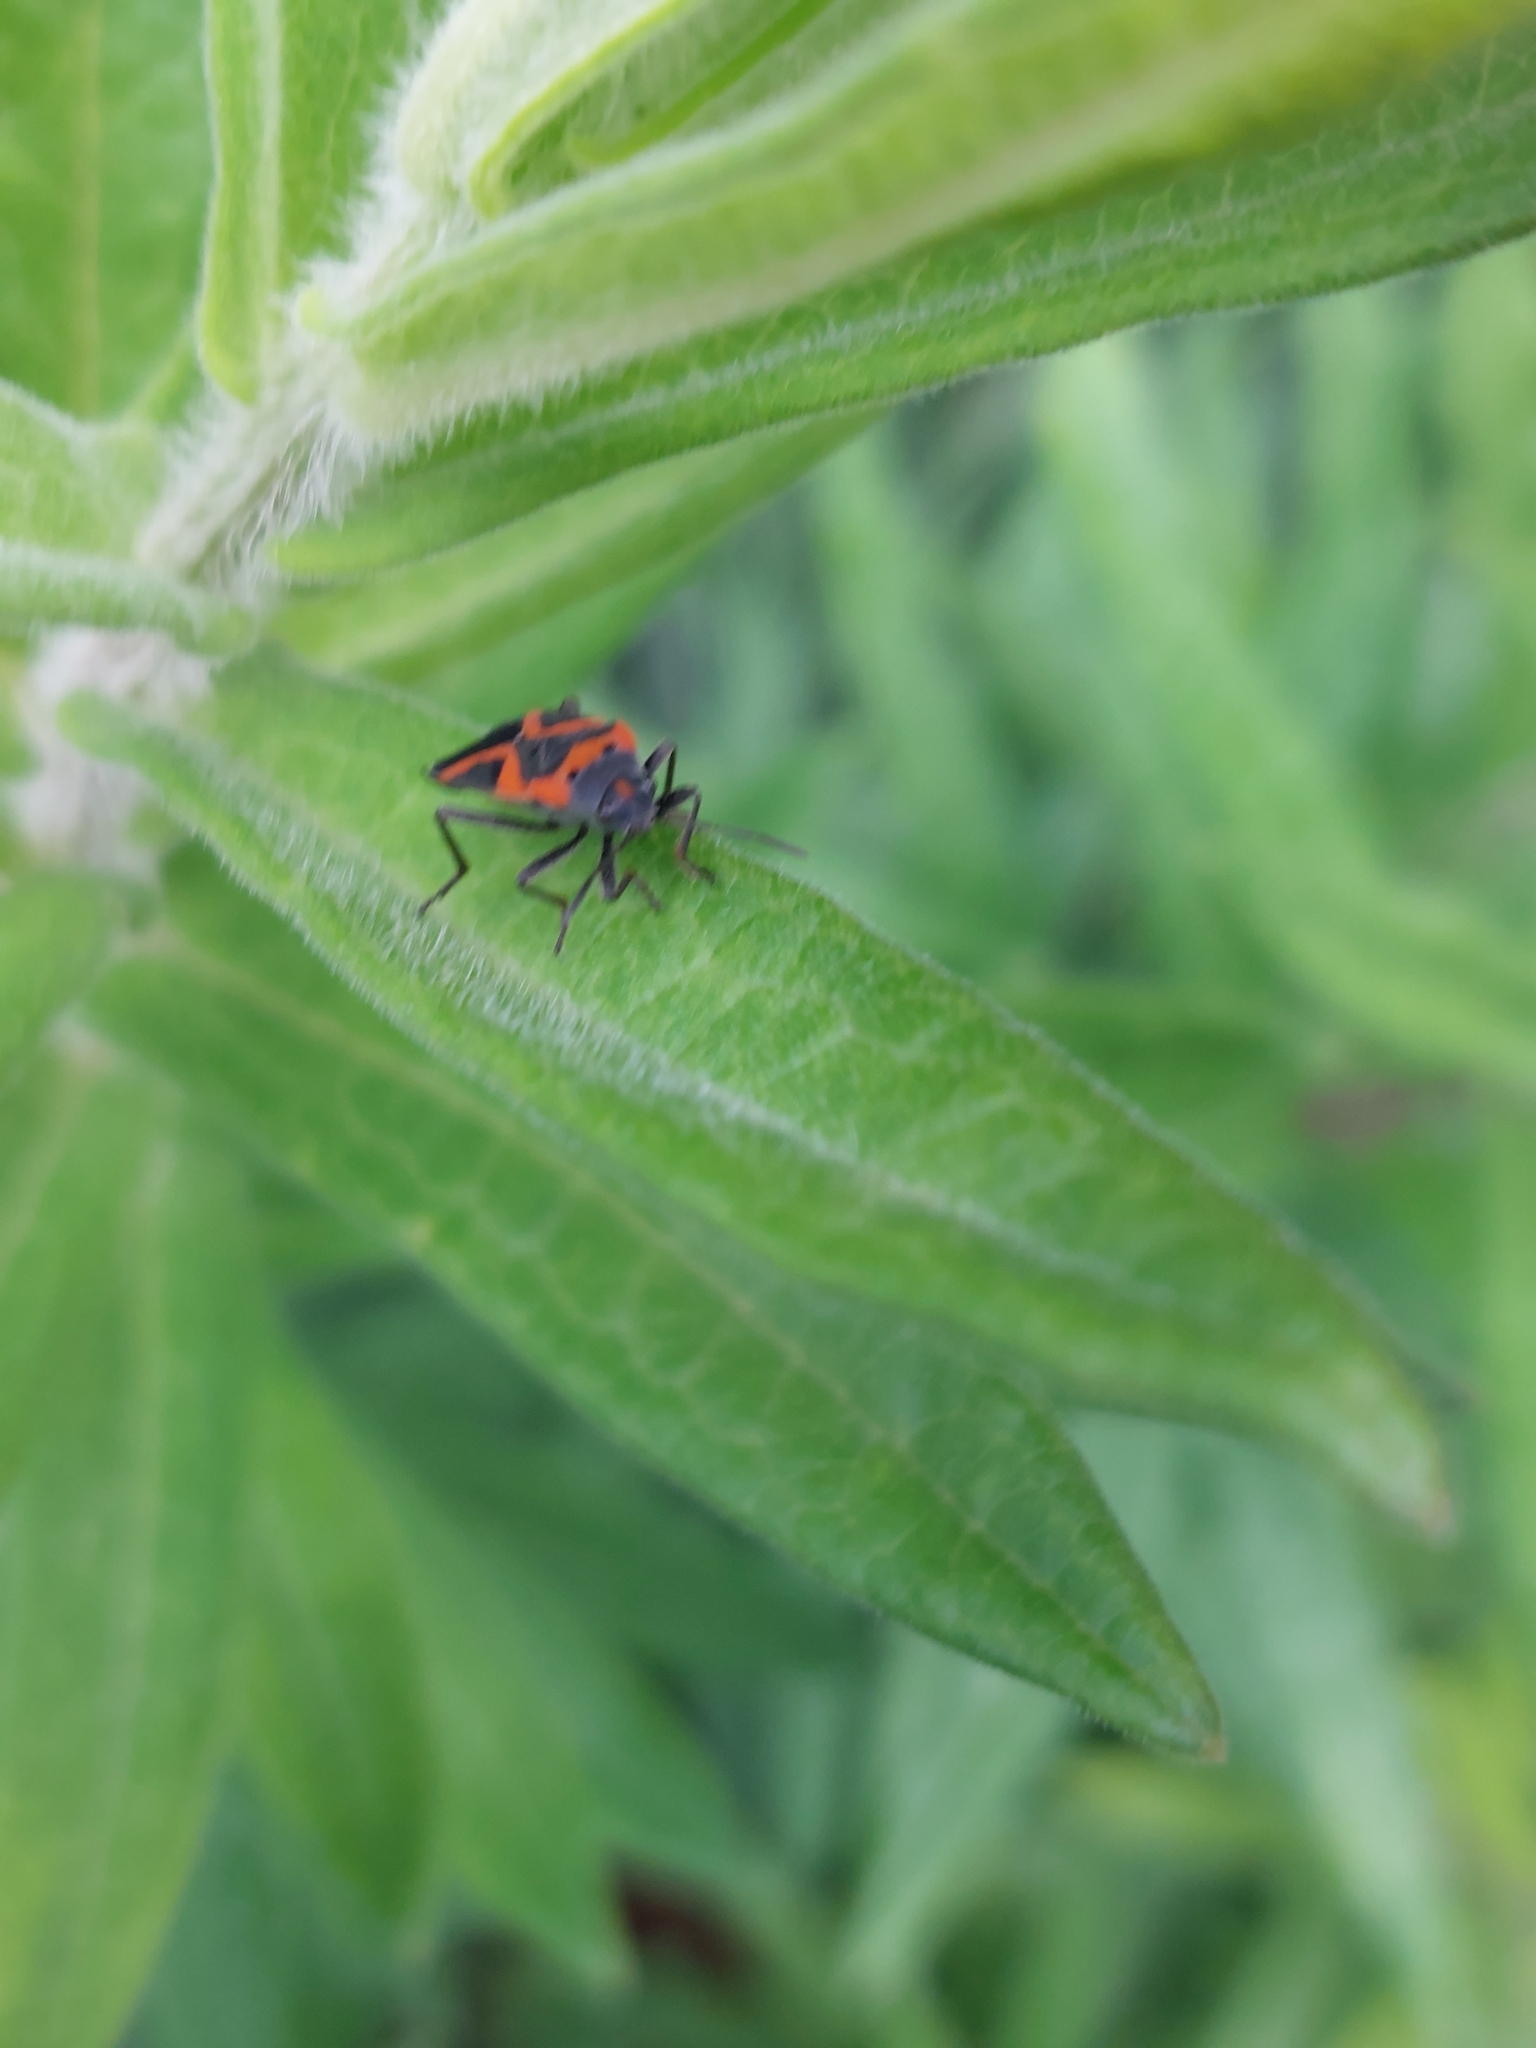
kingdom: Animalia
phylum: Arthropoda
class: Insecta
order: Hemiptera
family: Lygaeidae
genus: Lygaeus
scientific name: Lygaeus kalmii
